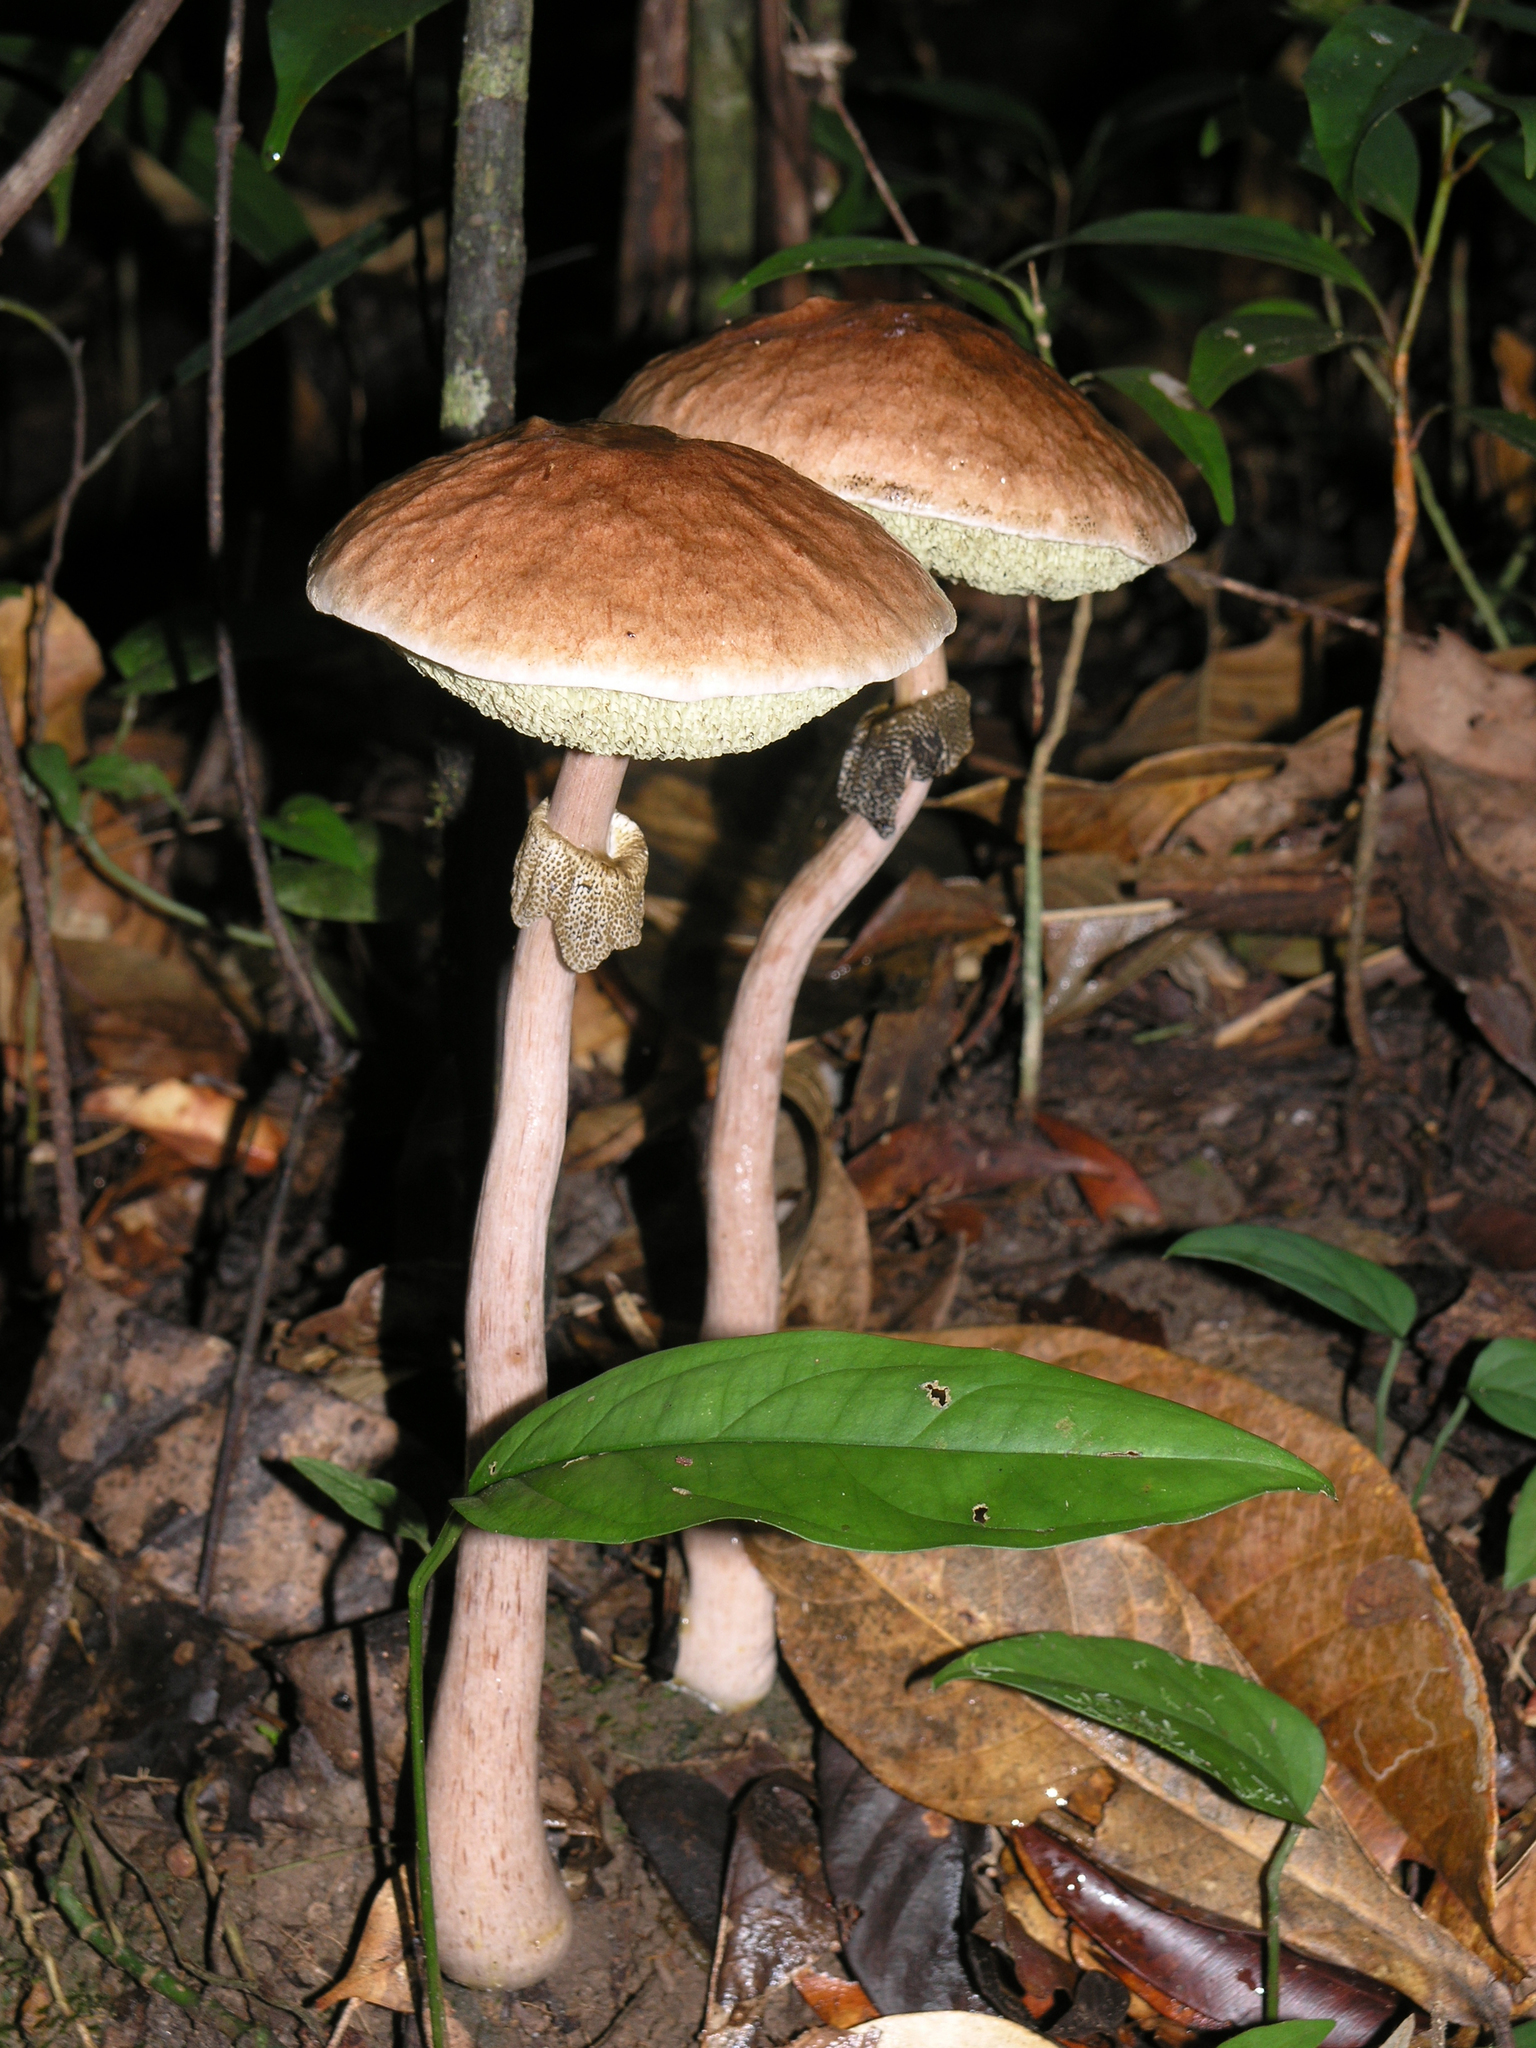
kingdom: Fungi
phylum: Basidiomycota
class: Agaricomycetes
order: Boletales
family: Boletaceae
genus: Aureoboletus
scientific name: Aureoboletus longicollis
